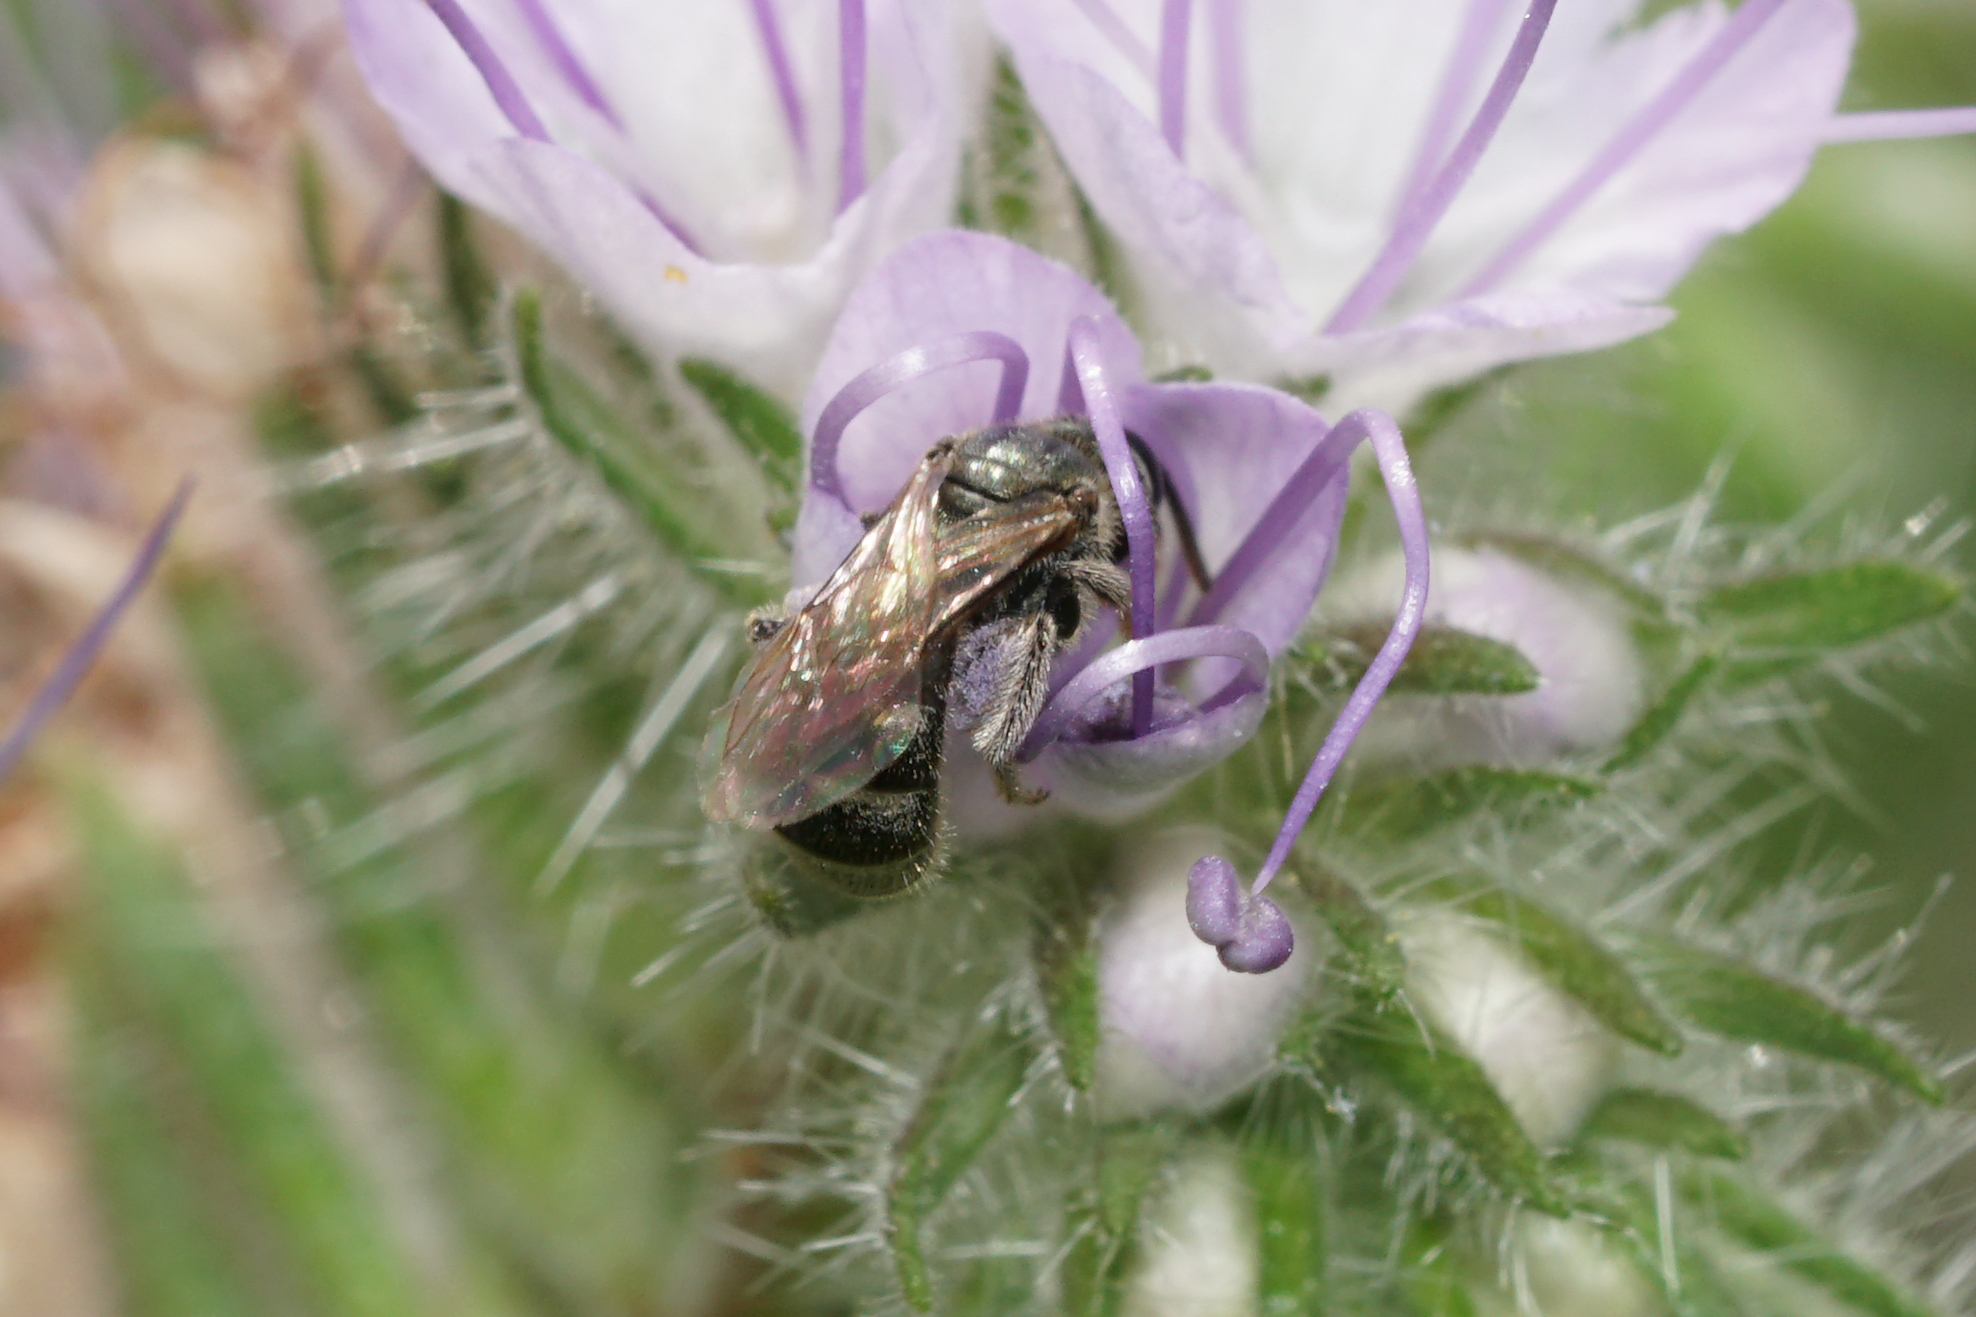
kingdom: Animalia
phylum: Arthropoda
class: Insecta
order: Hymenoptera
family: Halictidae
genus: Dialictus
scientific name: Dialictus
